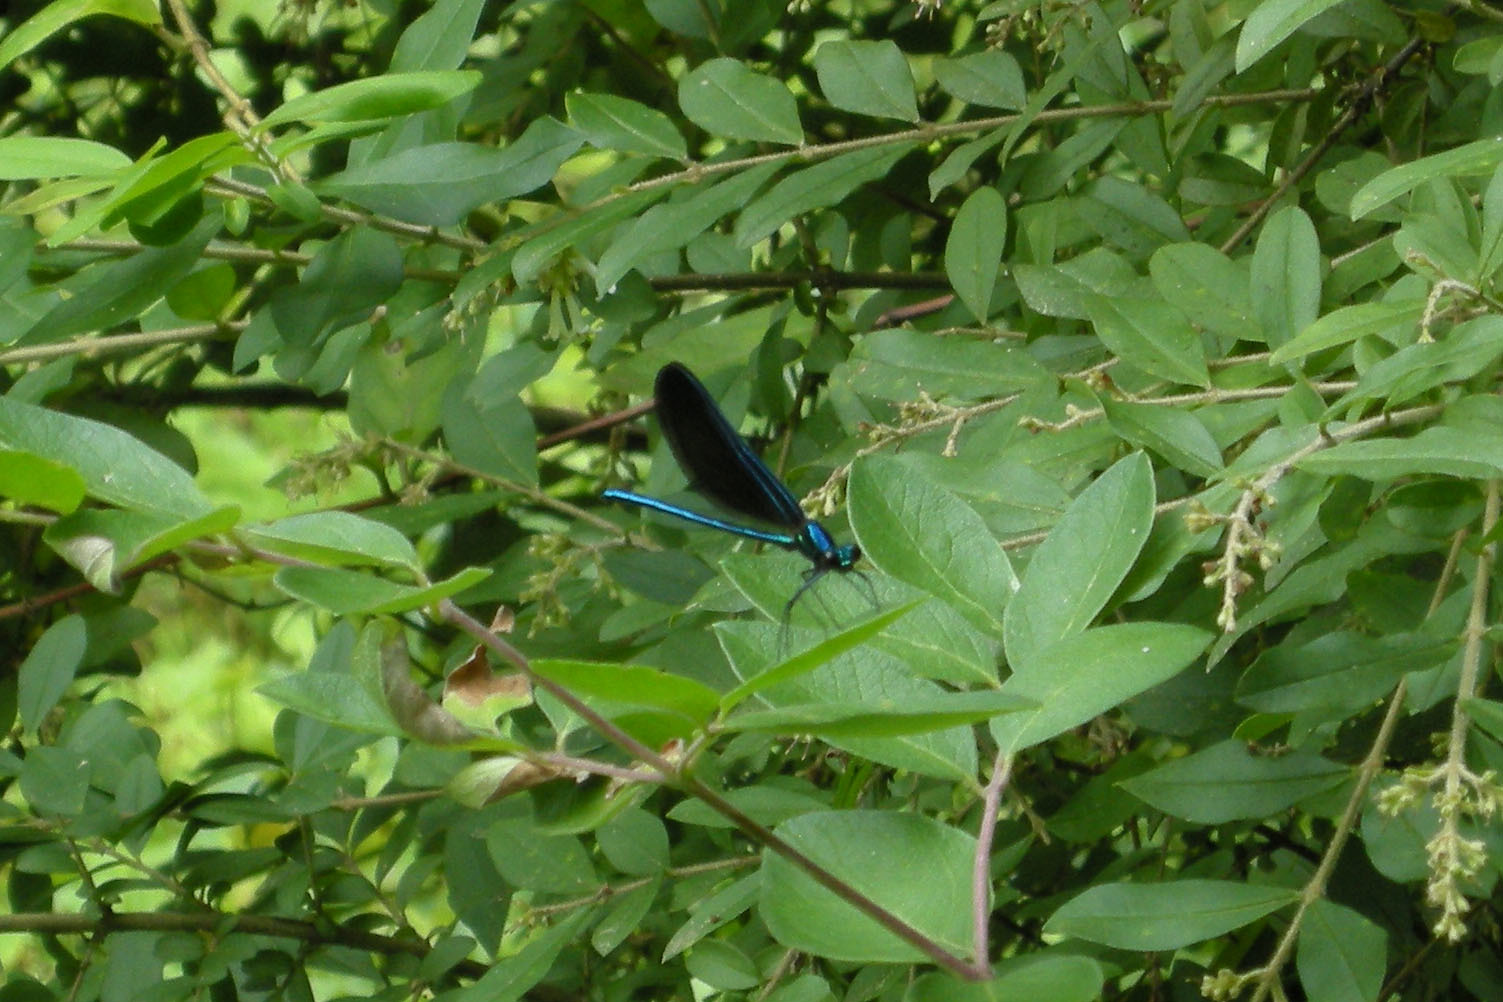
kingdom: Animalia
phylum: Arthropoda
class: Insecta
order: Odonata
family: Calopterygidae
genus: Calopteryx
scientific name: Calopteryx maculata
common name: Ebony jewelwing
